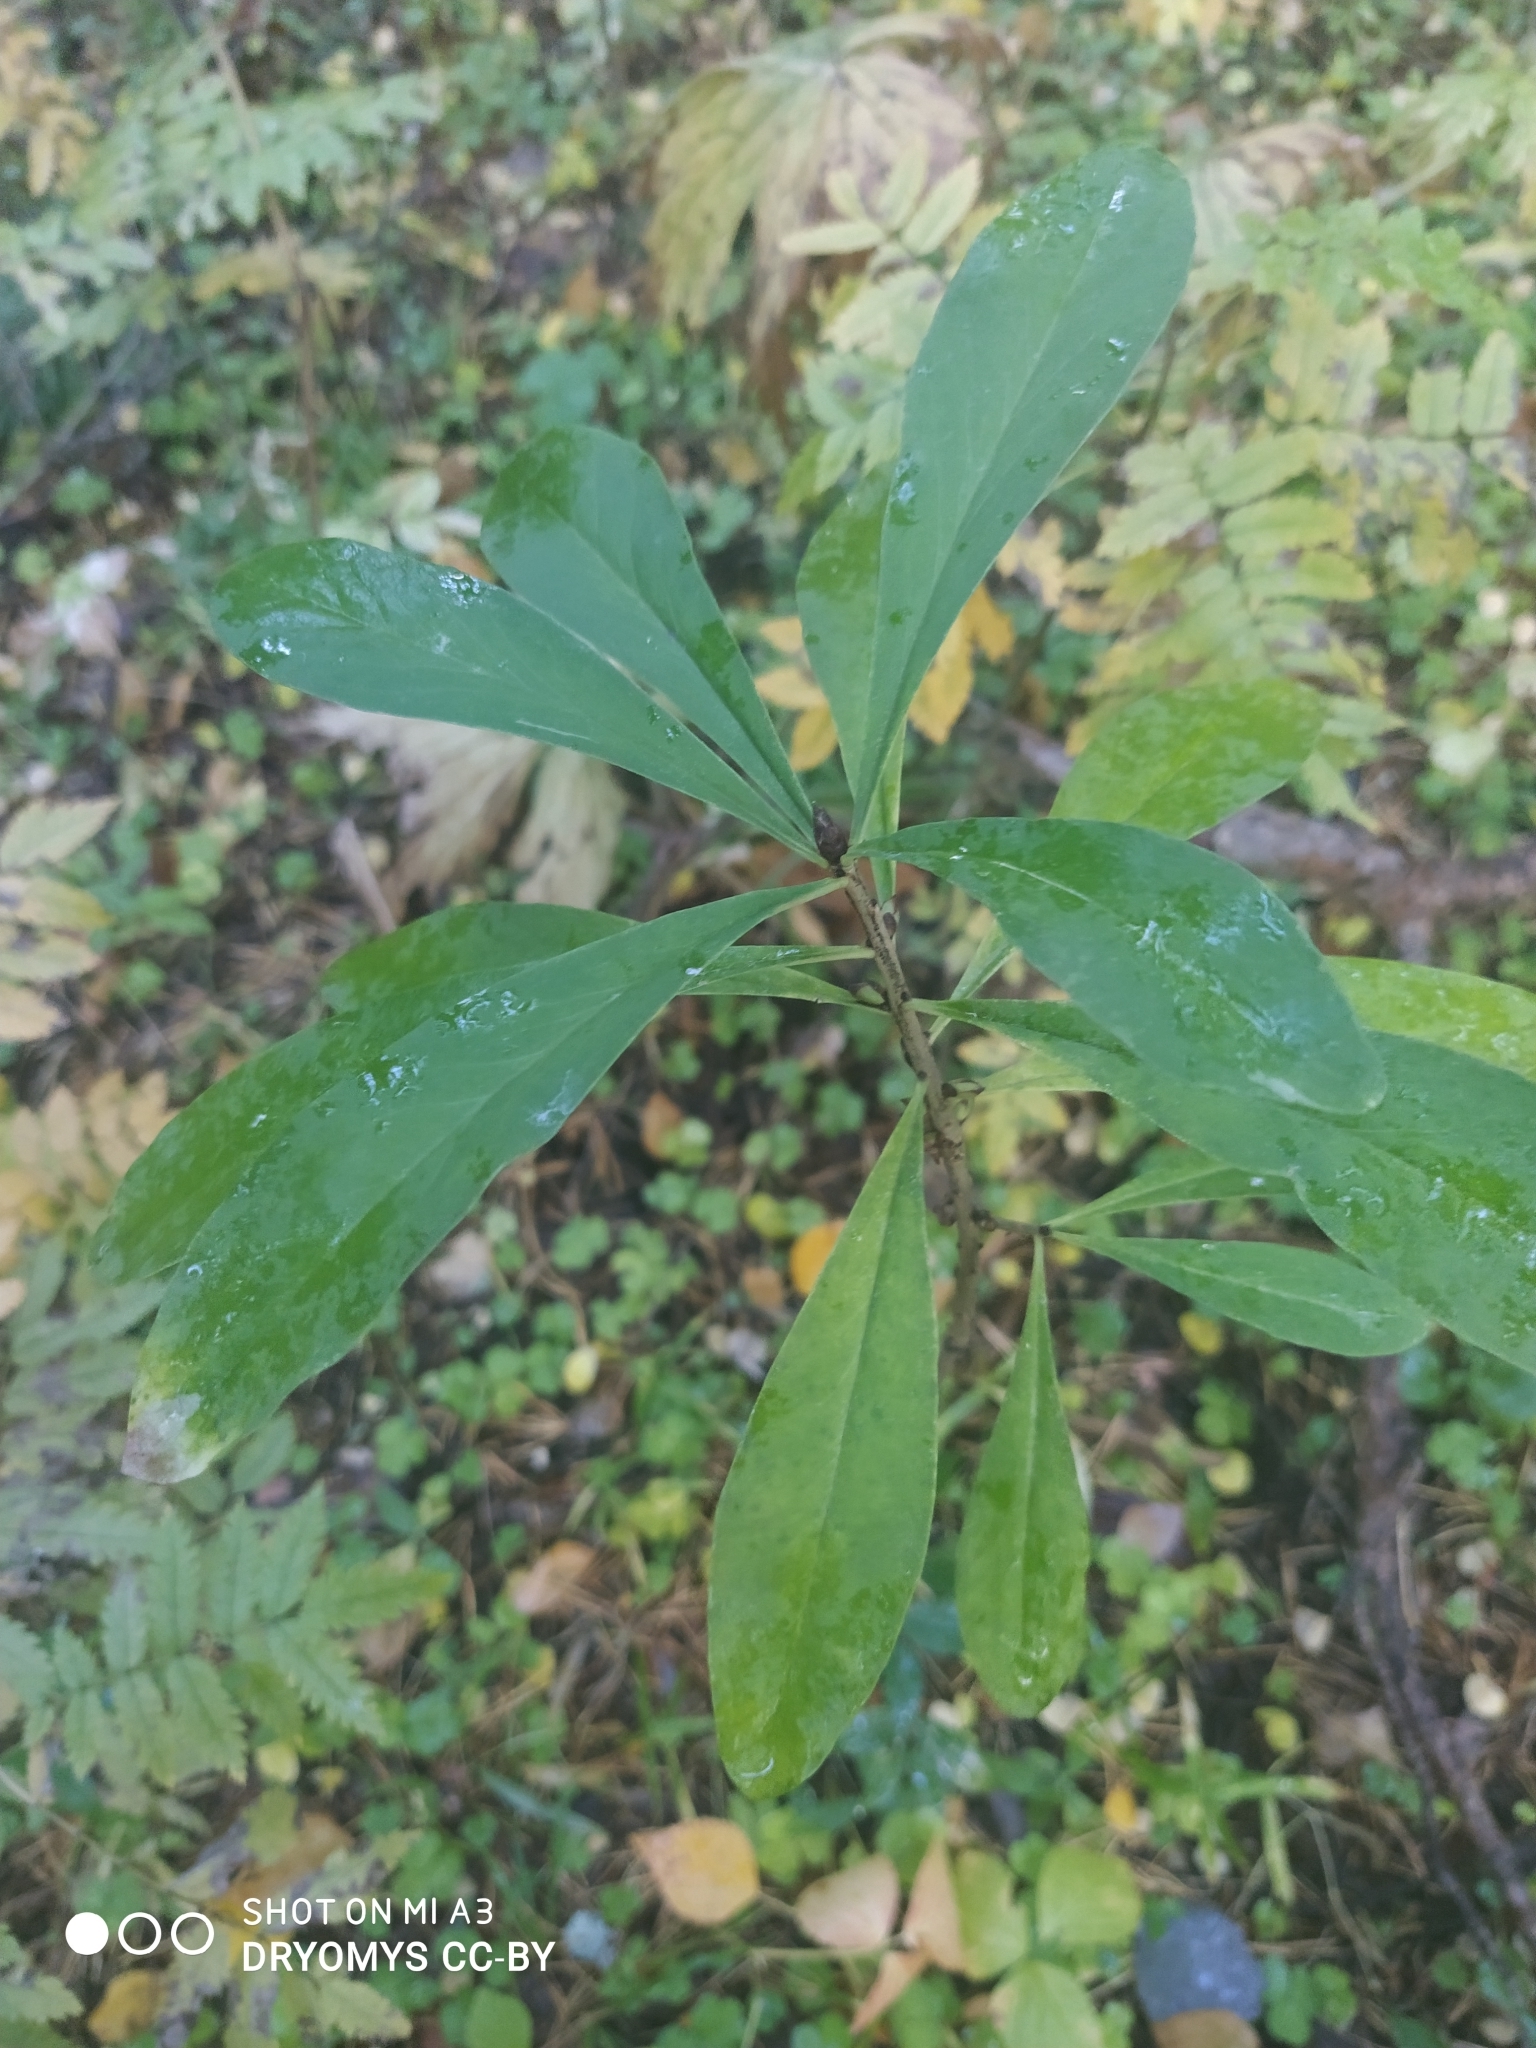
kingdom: Plantae
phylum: Tracheophyta
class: Magnoliopsida
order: Malvales
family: Thymelaeaceae
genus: Daphne
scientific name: Daphne mezereum
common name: Mezereon
